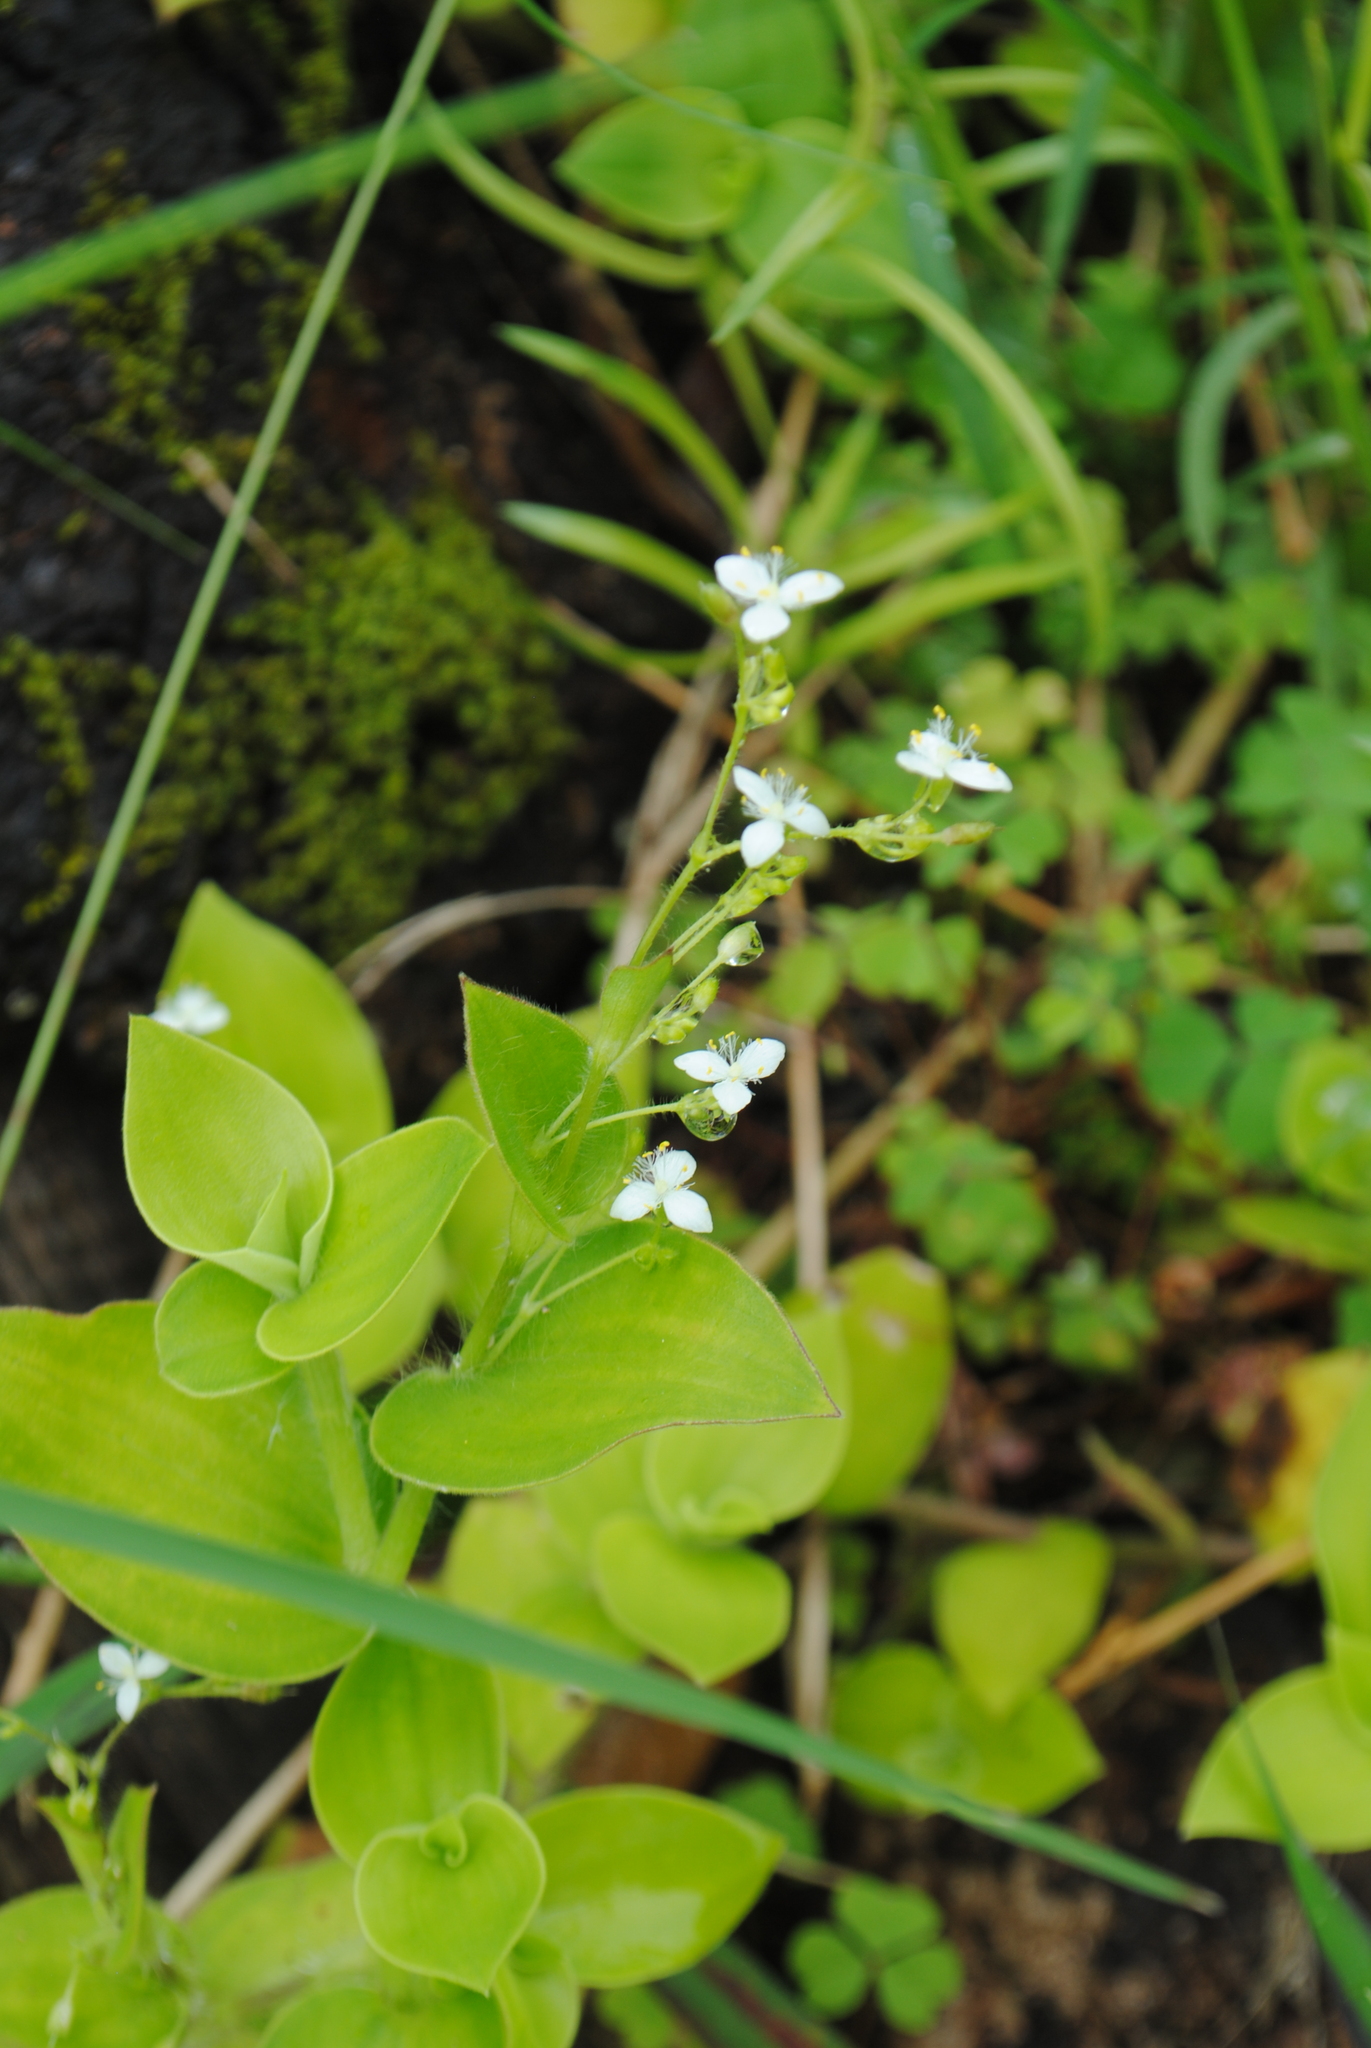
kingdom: Plantae
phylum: Tracheophyta
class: Liliopsida
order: Commelinales
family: Commelinaceae
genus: Gibasis
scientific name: Gibasis geniculata
